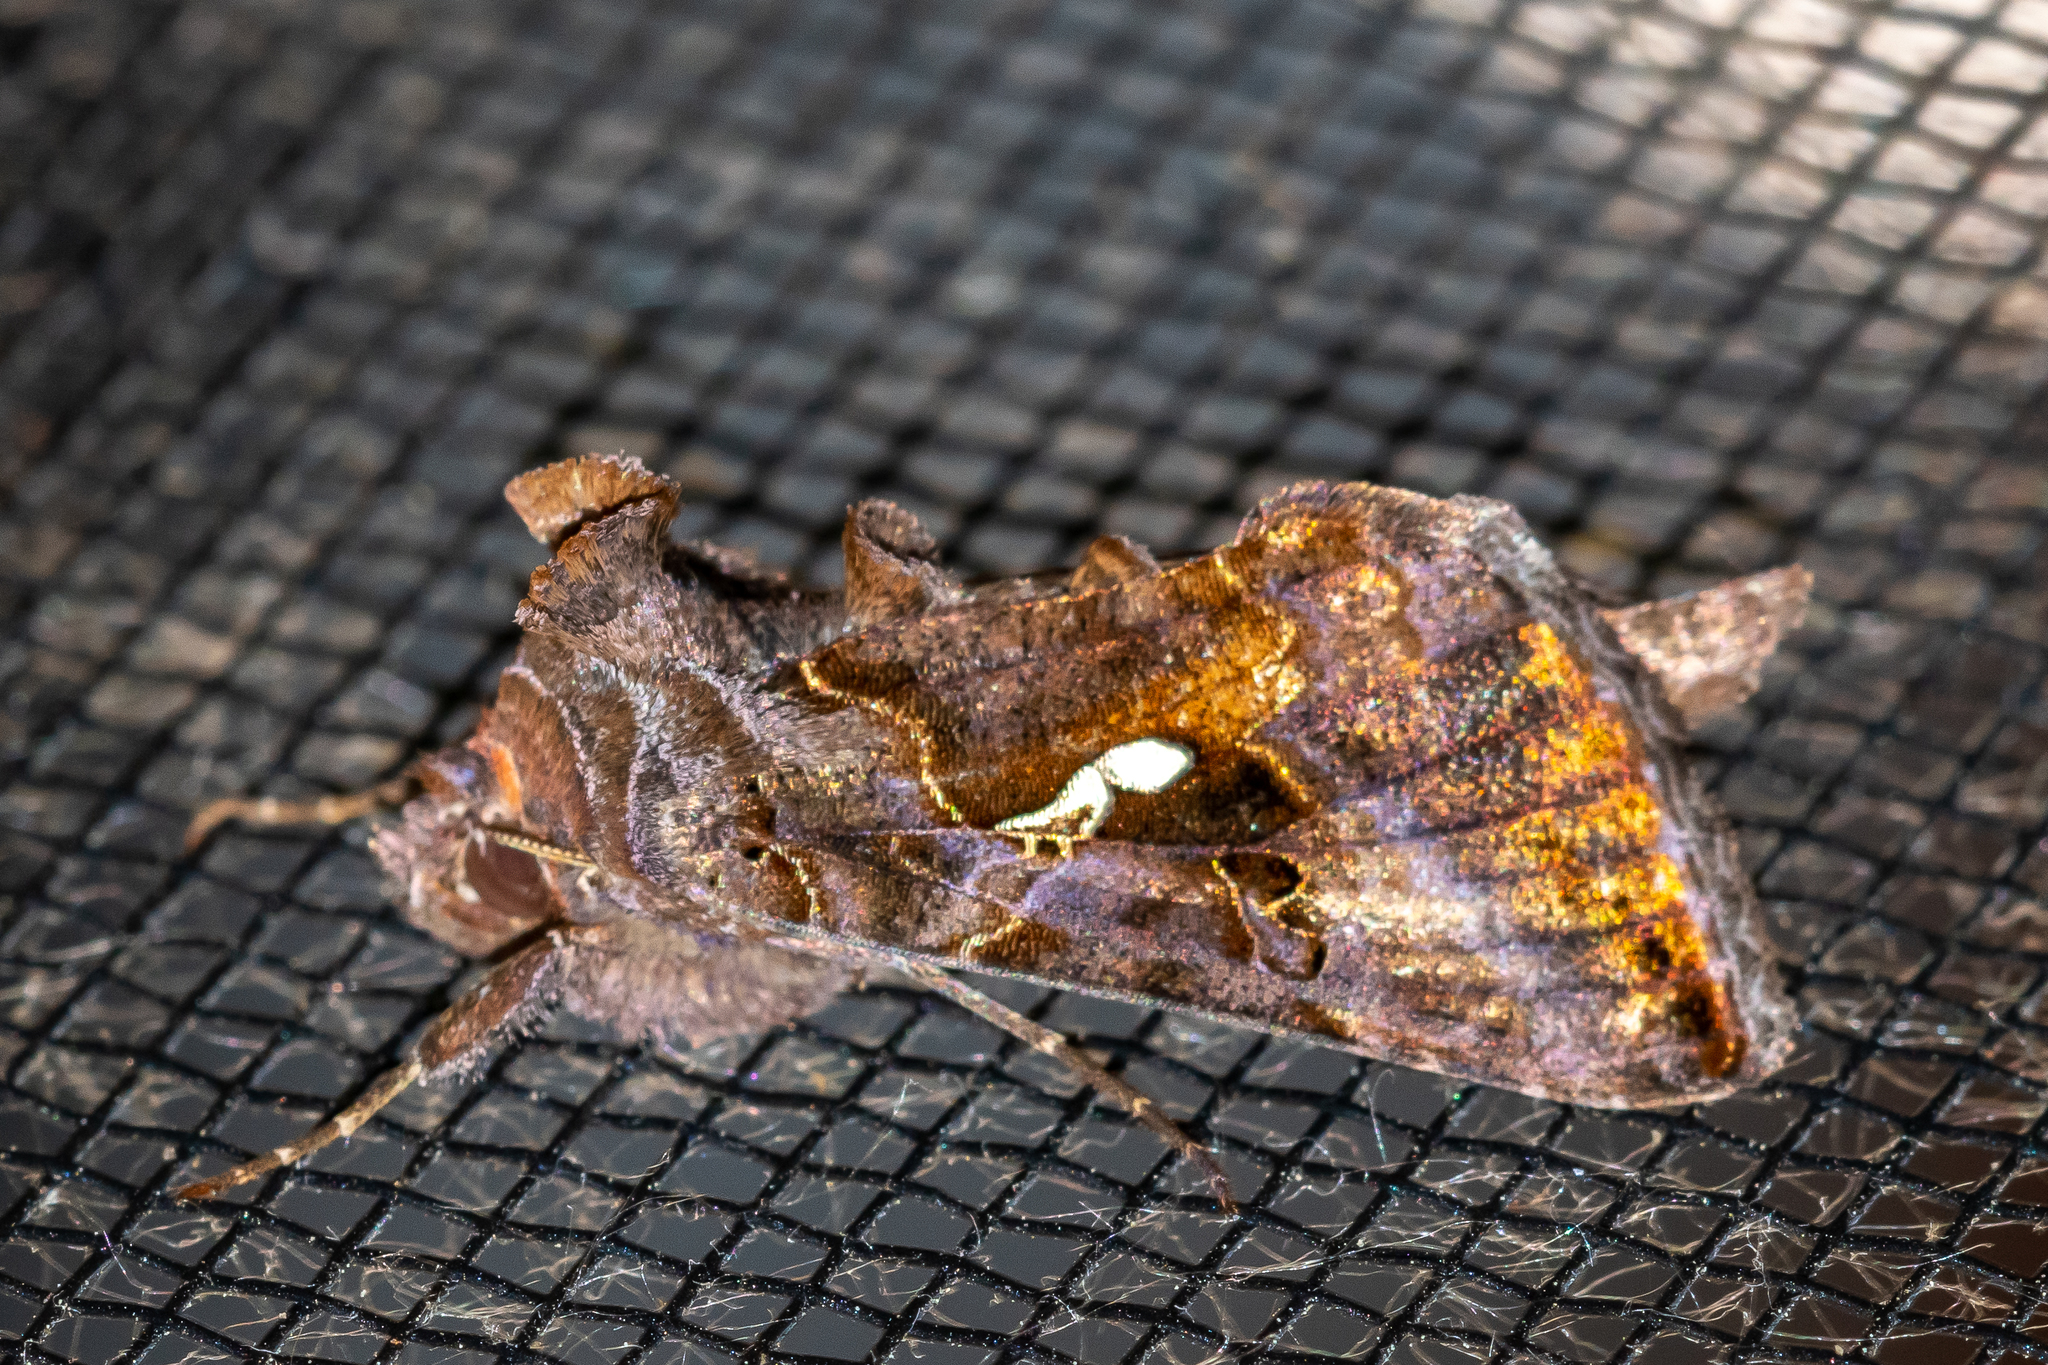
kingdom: Animalia
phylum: Arthropoda
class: Insecta
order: Lepidoptera
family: Noctuidae
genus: Autographa
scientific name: Autographa precationis
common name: Common looper moth
